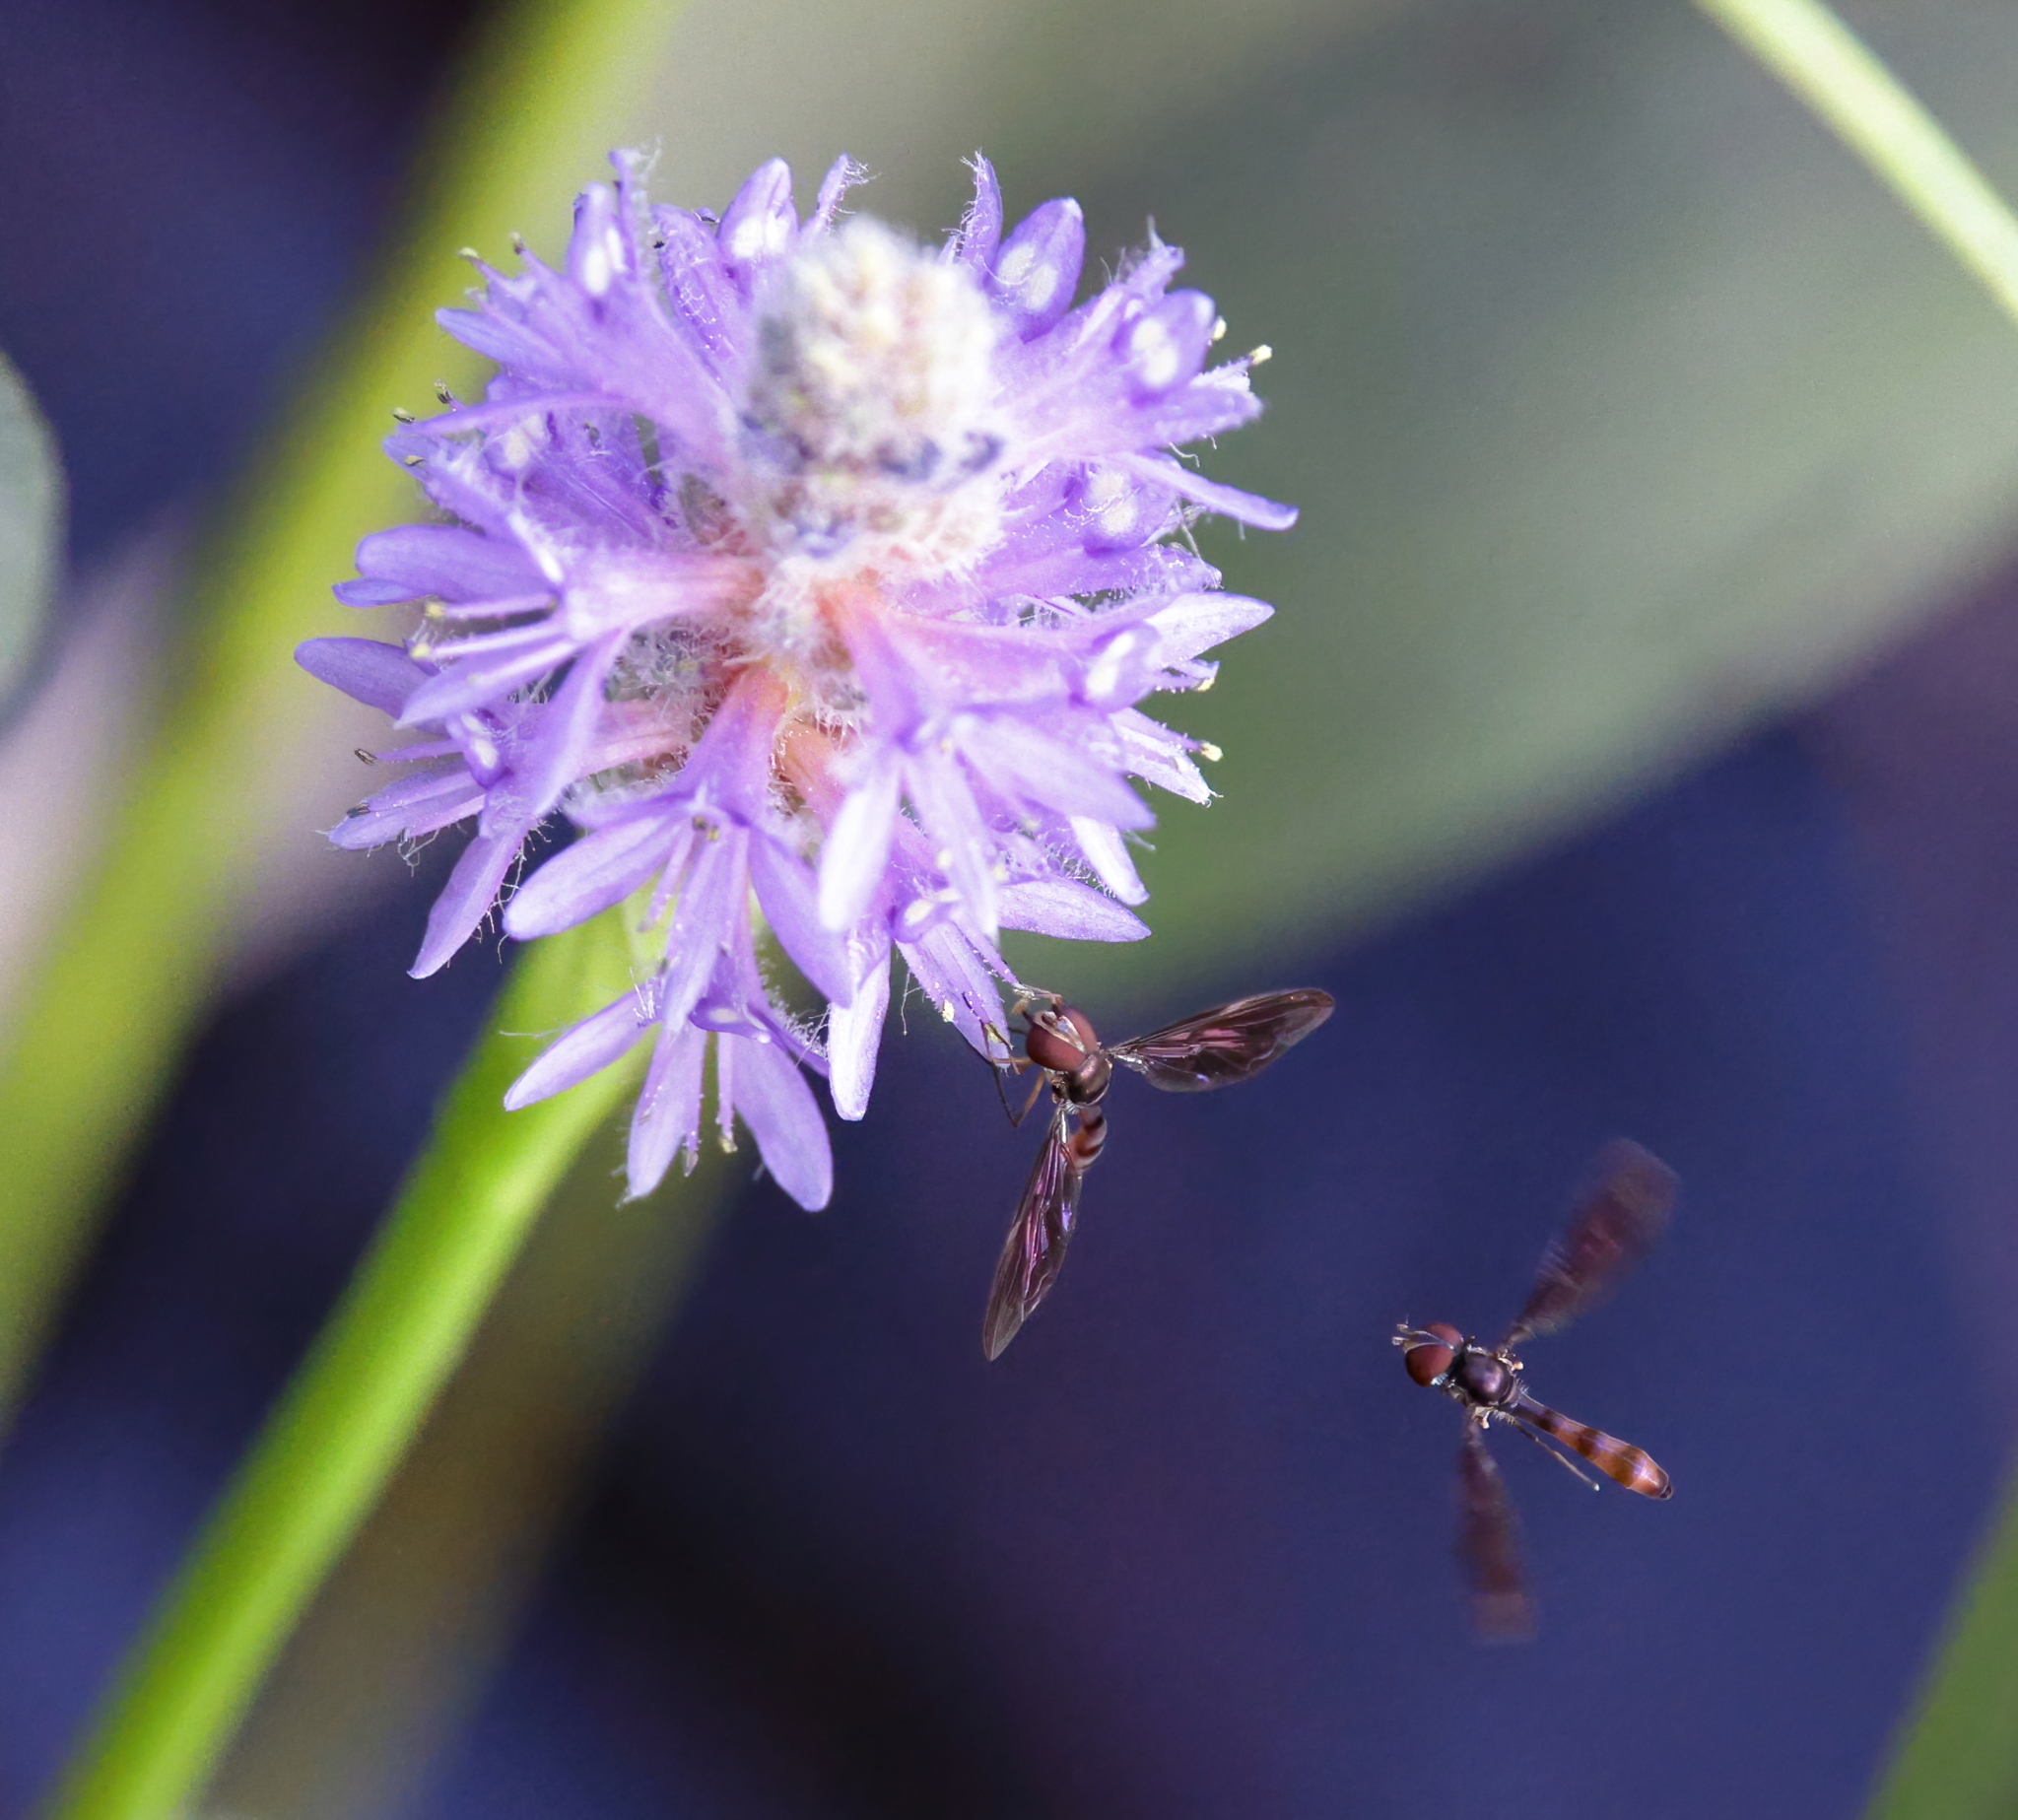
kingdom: Animalia
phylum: Arthropoda
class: Insecta
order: Diptera
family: Syrphidae
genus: Ocyptamus
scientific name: Ocyptamus fuscipennis
